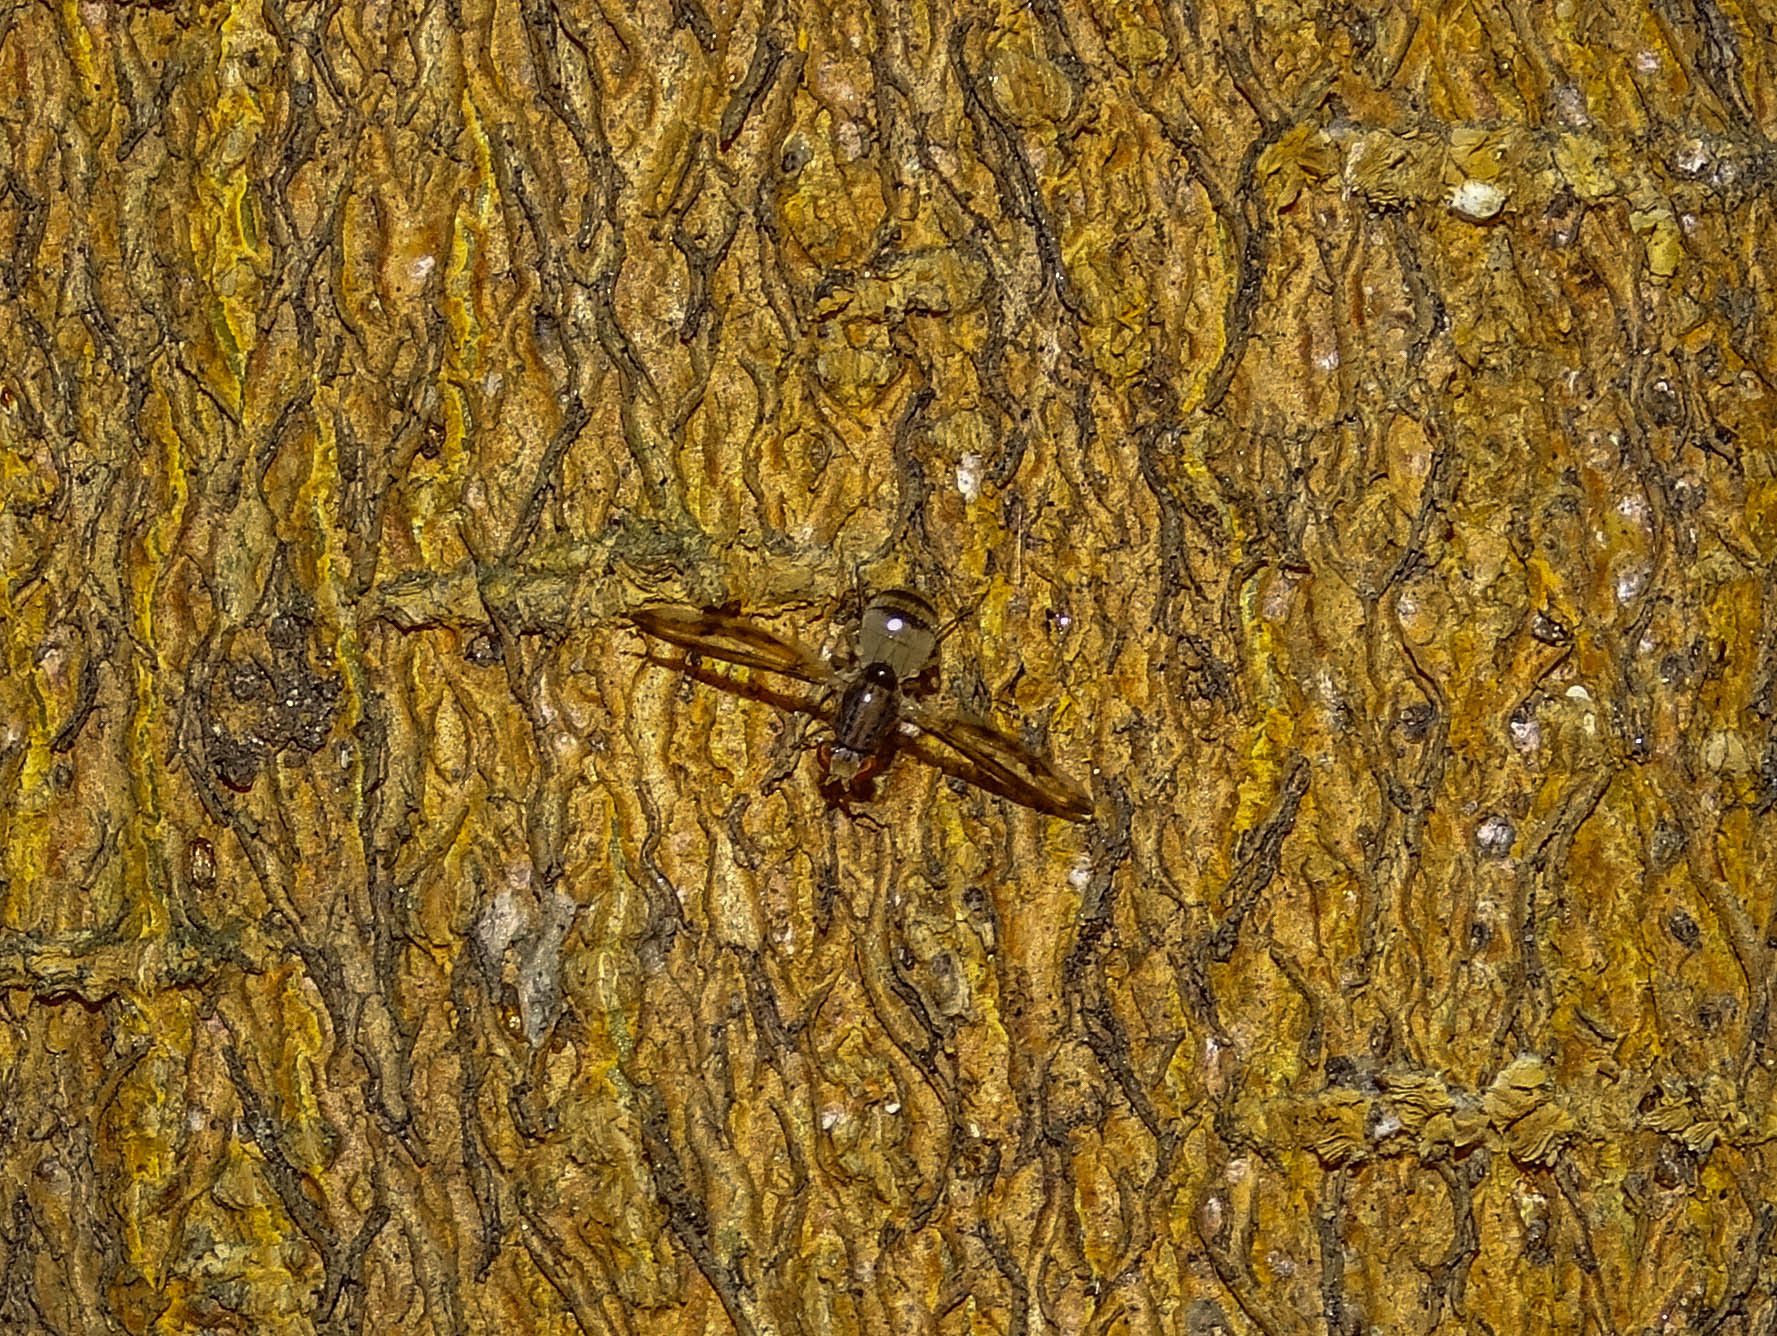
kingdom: Animalia
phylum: Arthropoda
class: Insecta
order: Diptera
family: Pallopteridae
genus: Toxonevra
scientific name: Toxonevra muliebris
